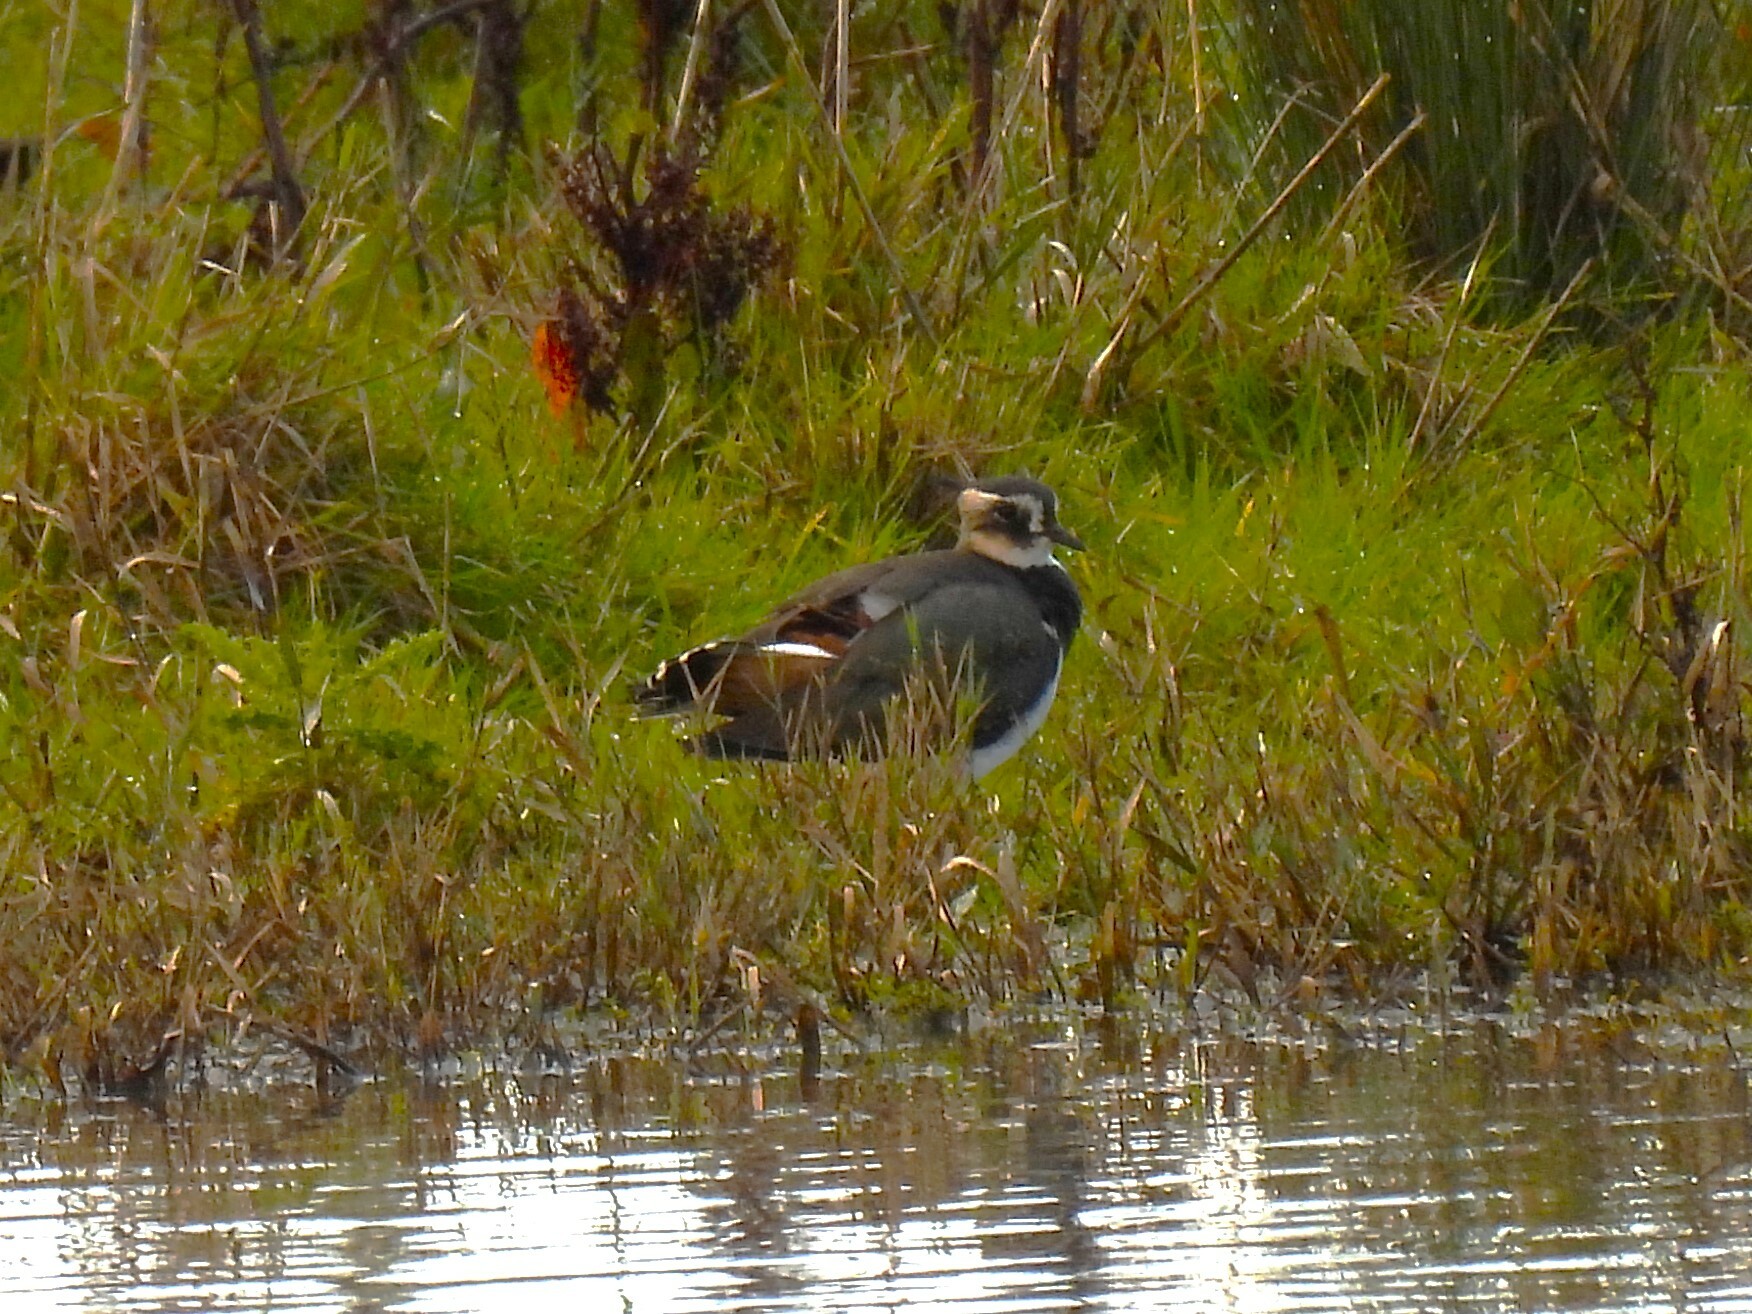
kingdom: Animalia
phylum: Chordata
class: Aves
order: Charadriiformes
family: Charadriidae
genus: Vanellus
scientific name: Vanellus vanellus
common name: Northern lapwing
